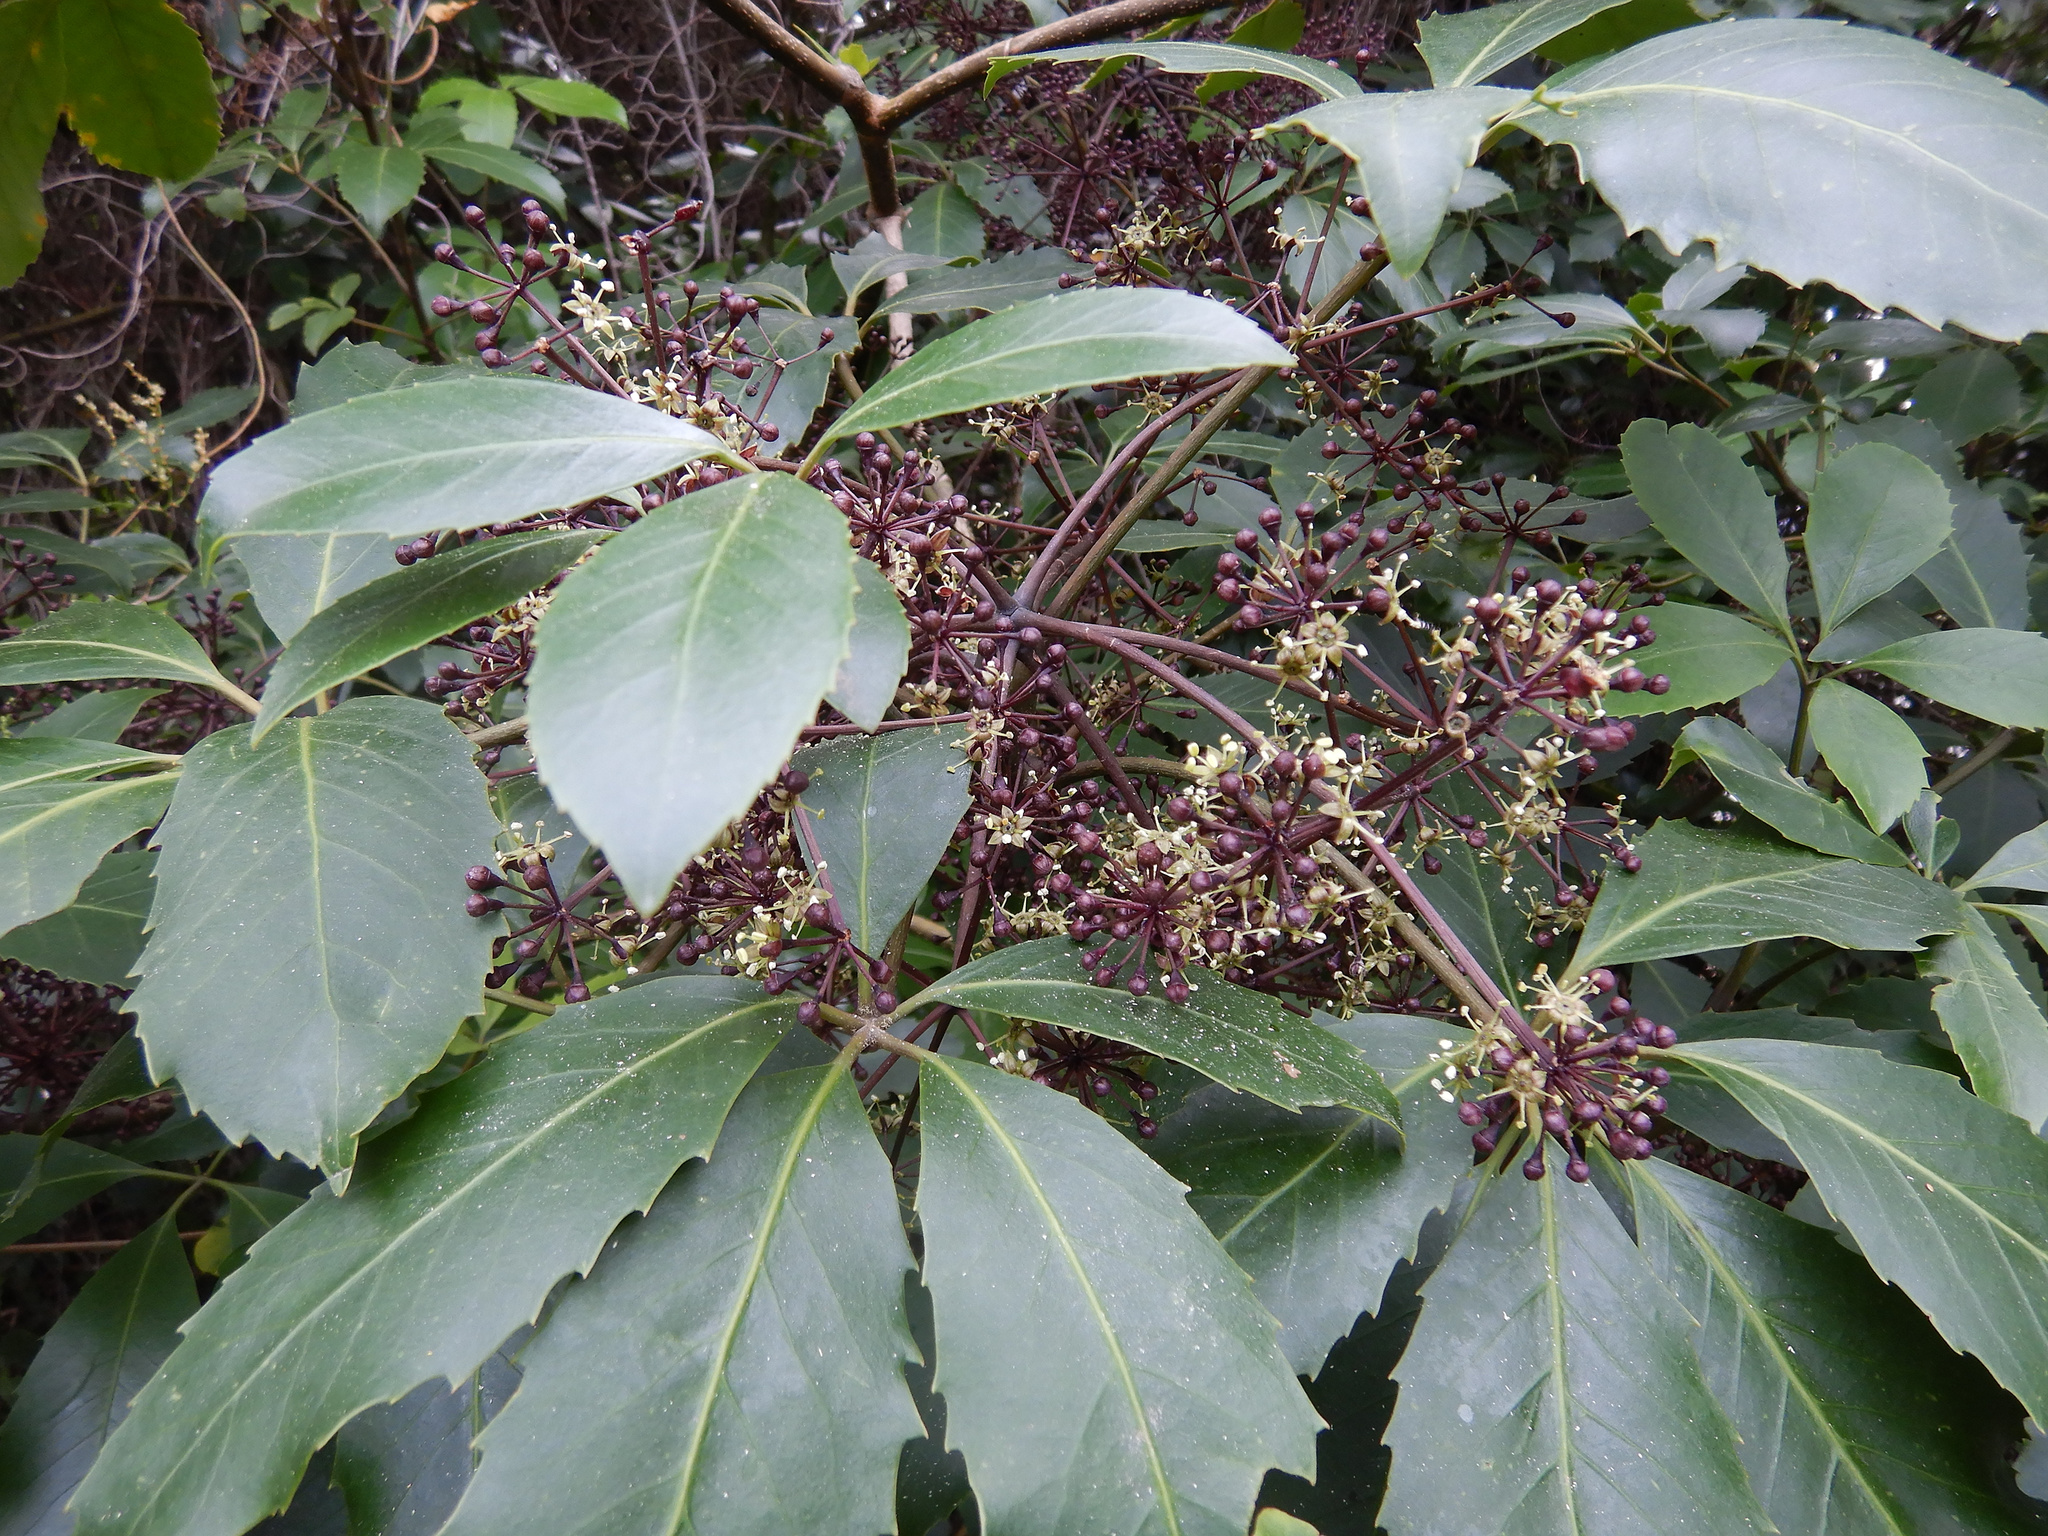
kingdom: Plantae
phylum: Tracheophyta
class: Magnoliopsida
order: Apiales
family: Araliaceae
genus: Neopanax
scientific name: Neopanax arboreus
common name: Five-fingers
